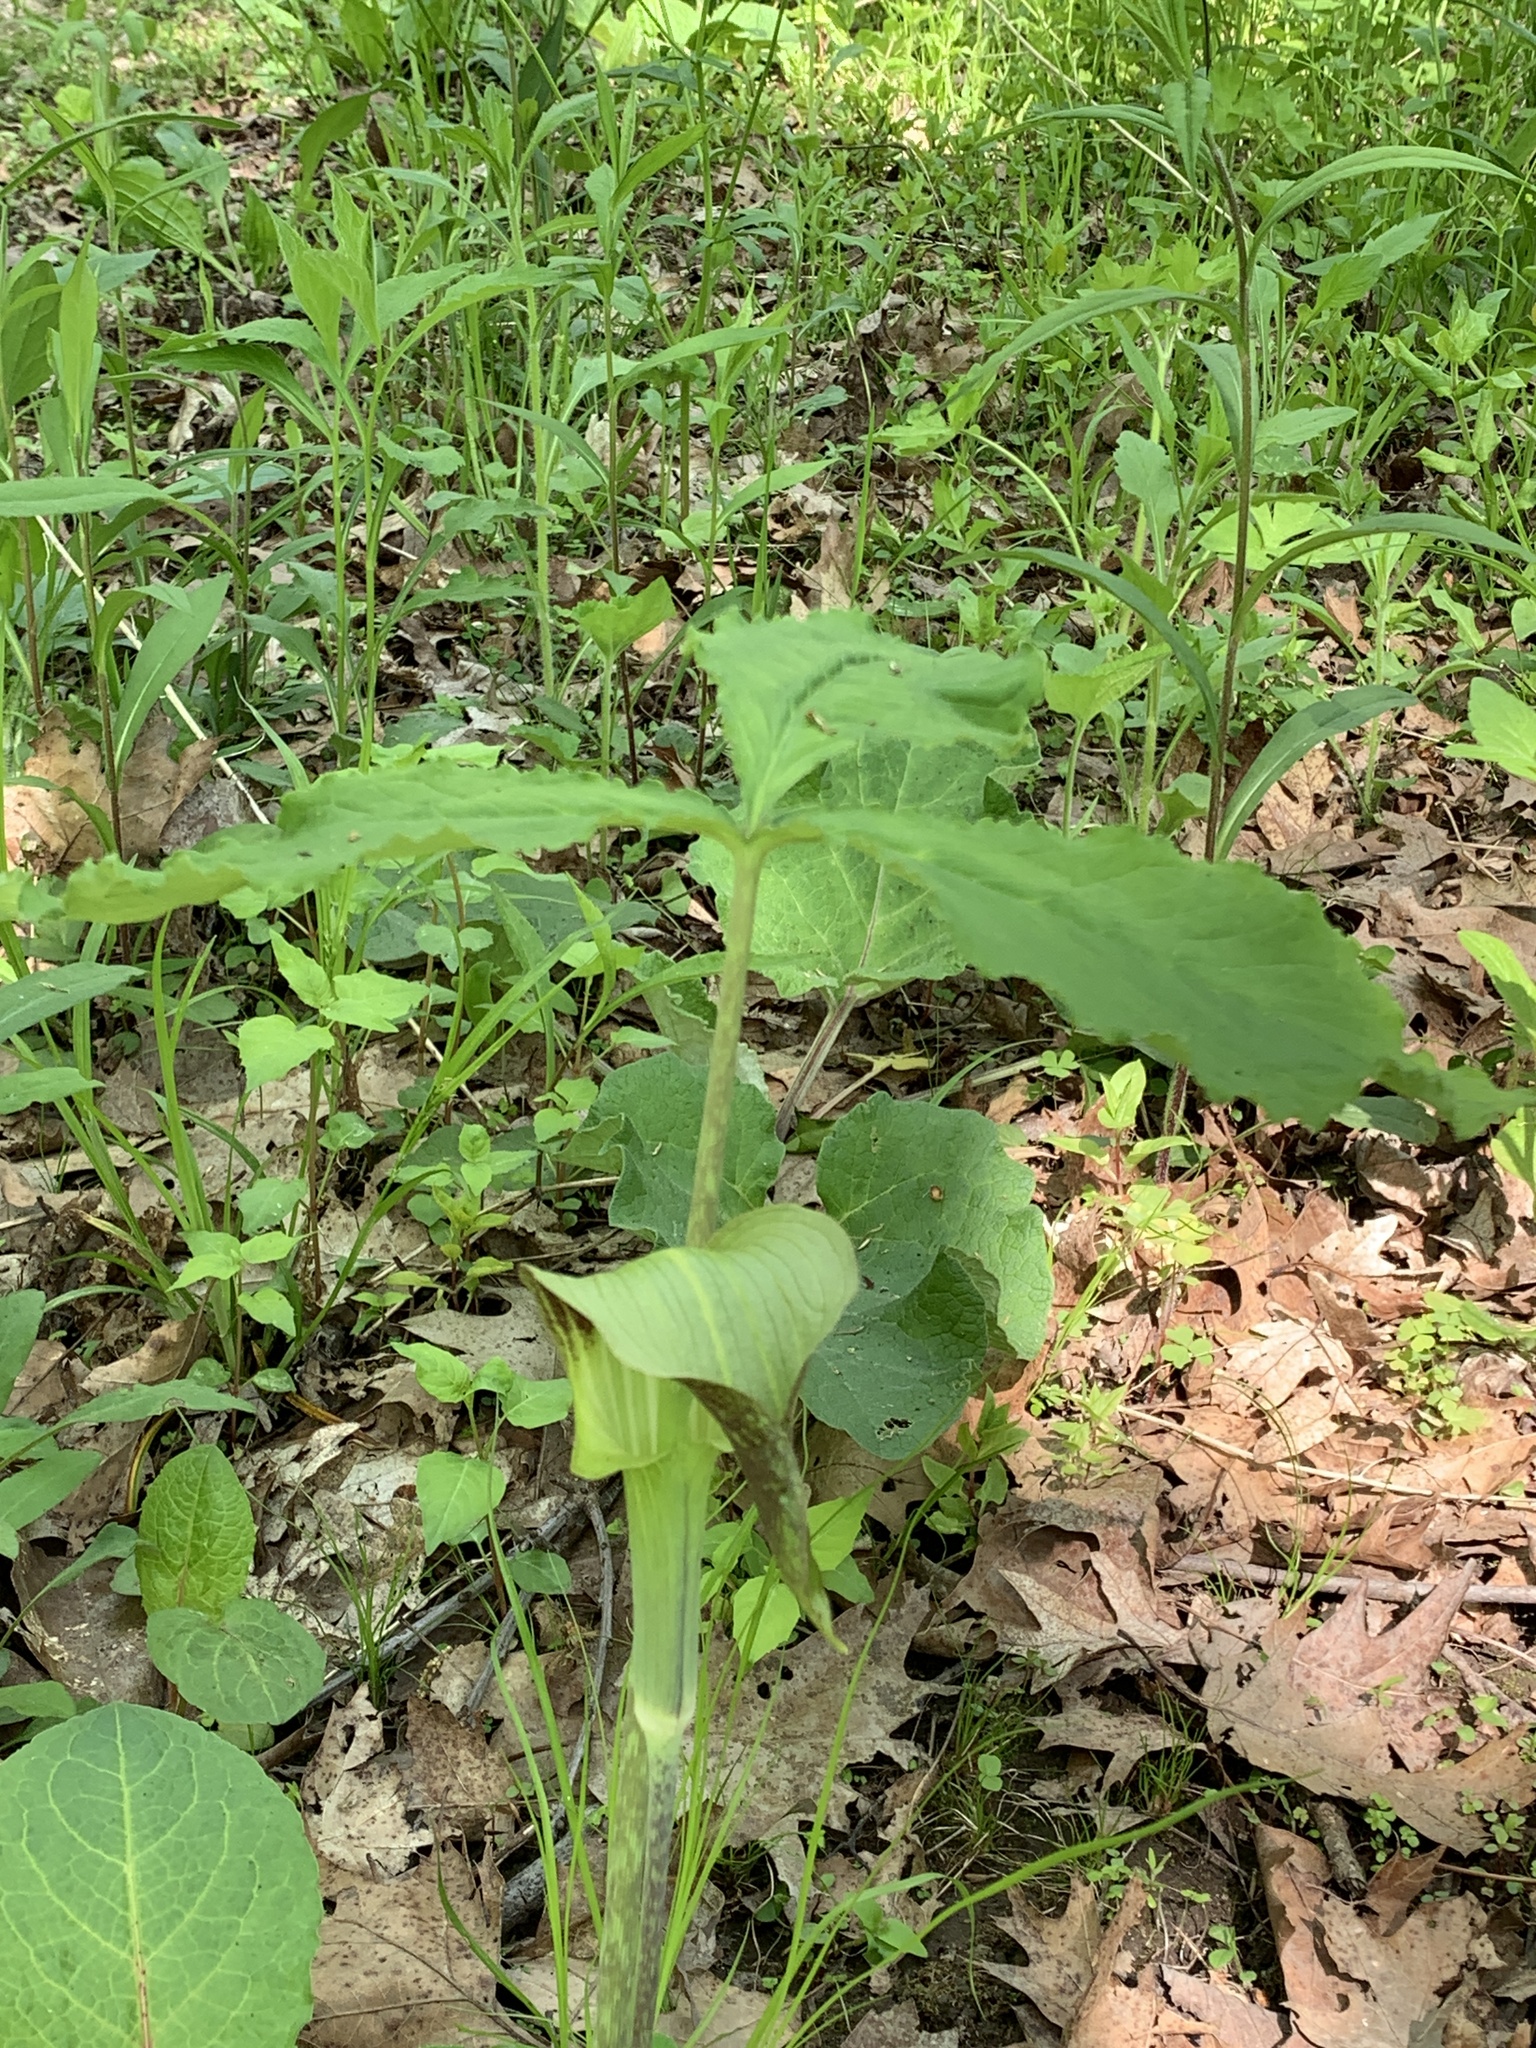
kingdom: Plantae
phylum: Tracheophyta
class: Liliopsida
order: Alismatales
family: Araceae
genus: Arisaema
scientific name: Arisaema triphyllum
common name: Jack-in-the-pulpit
